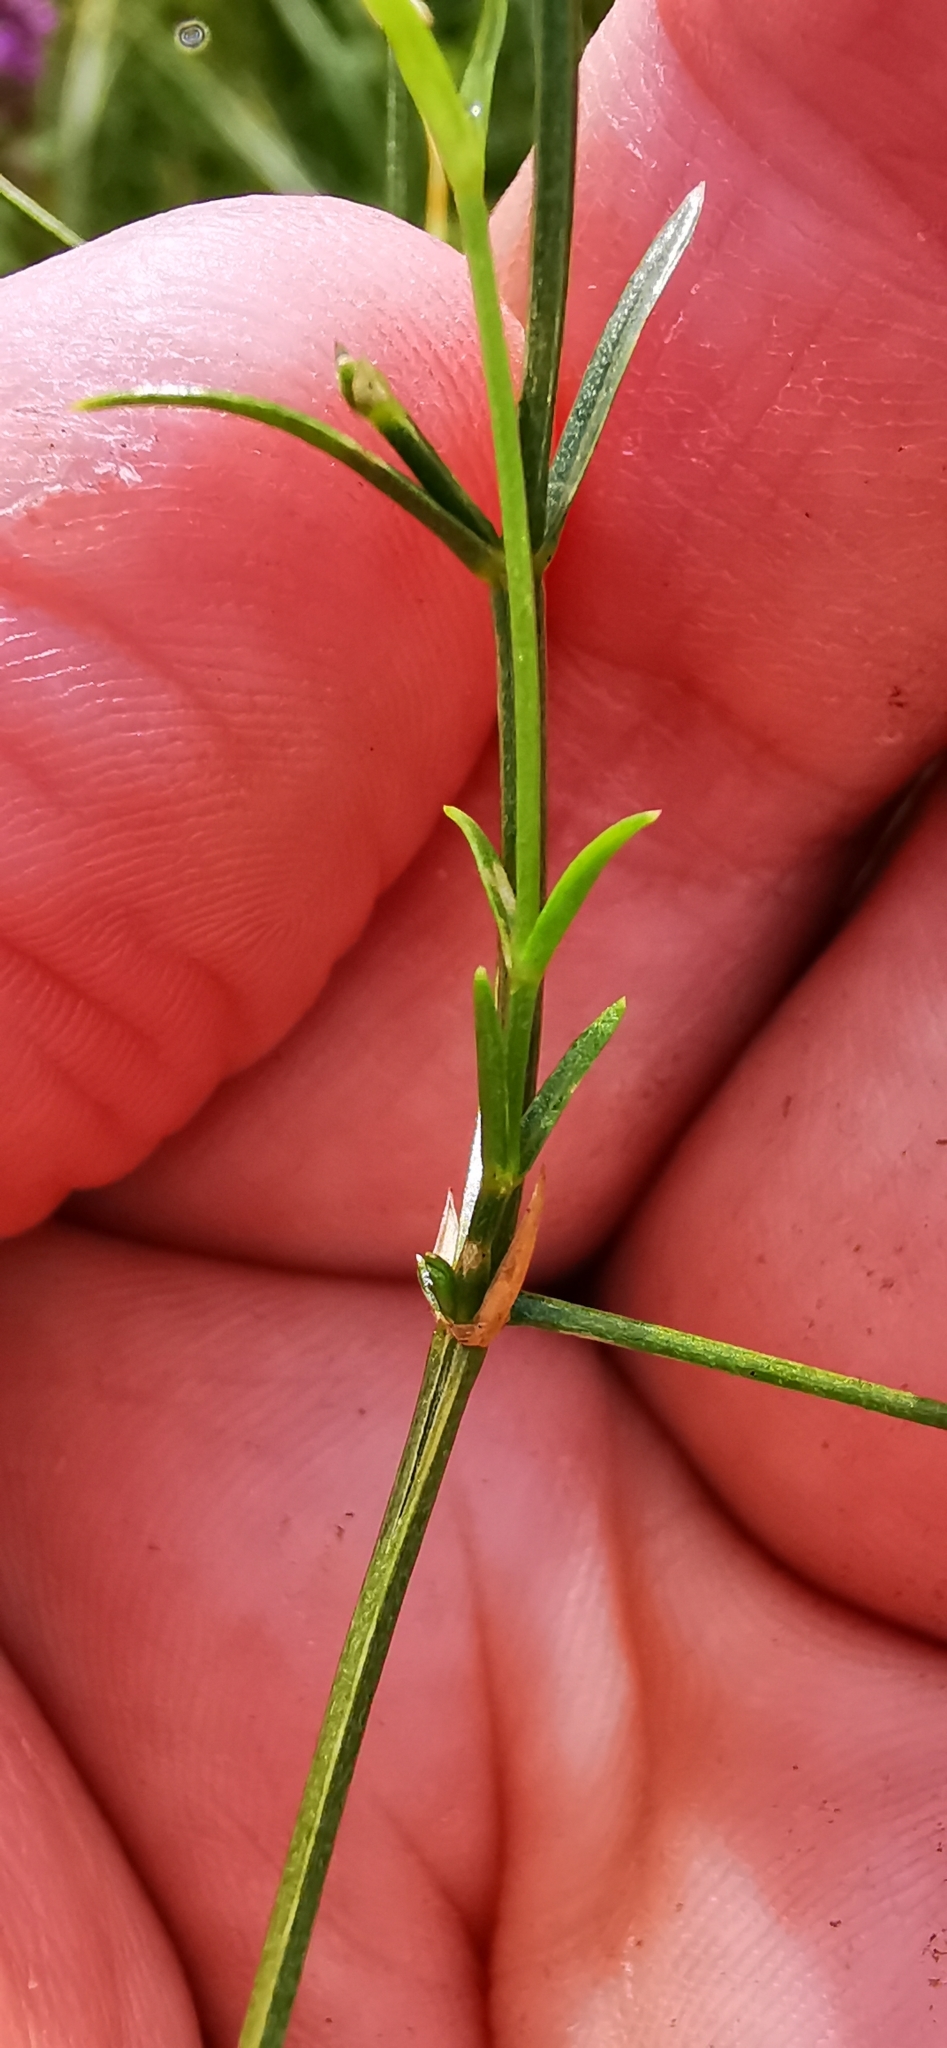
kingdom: Plantae
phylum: Tracheophyta
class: Magnoliopsida
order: Caryophyllales
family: Caryophyllaceae
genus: Stellaria
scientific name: Stellaria palustris
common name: Marsh stitchwort
